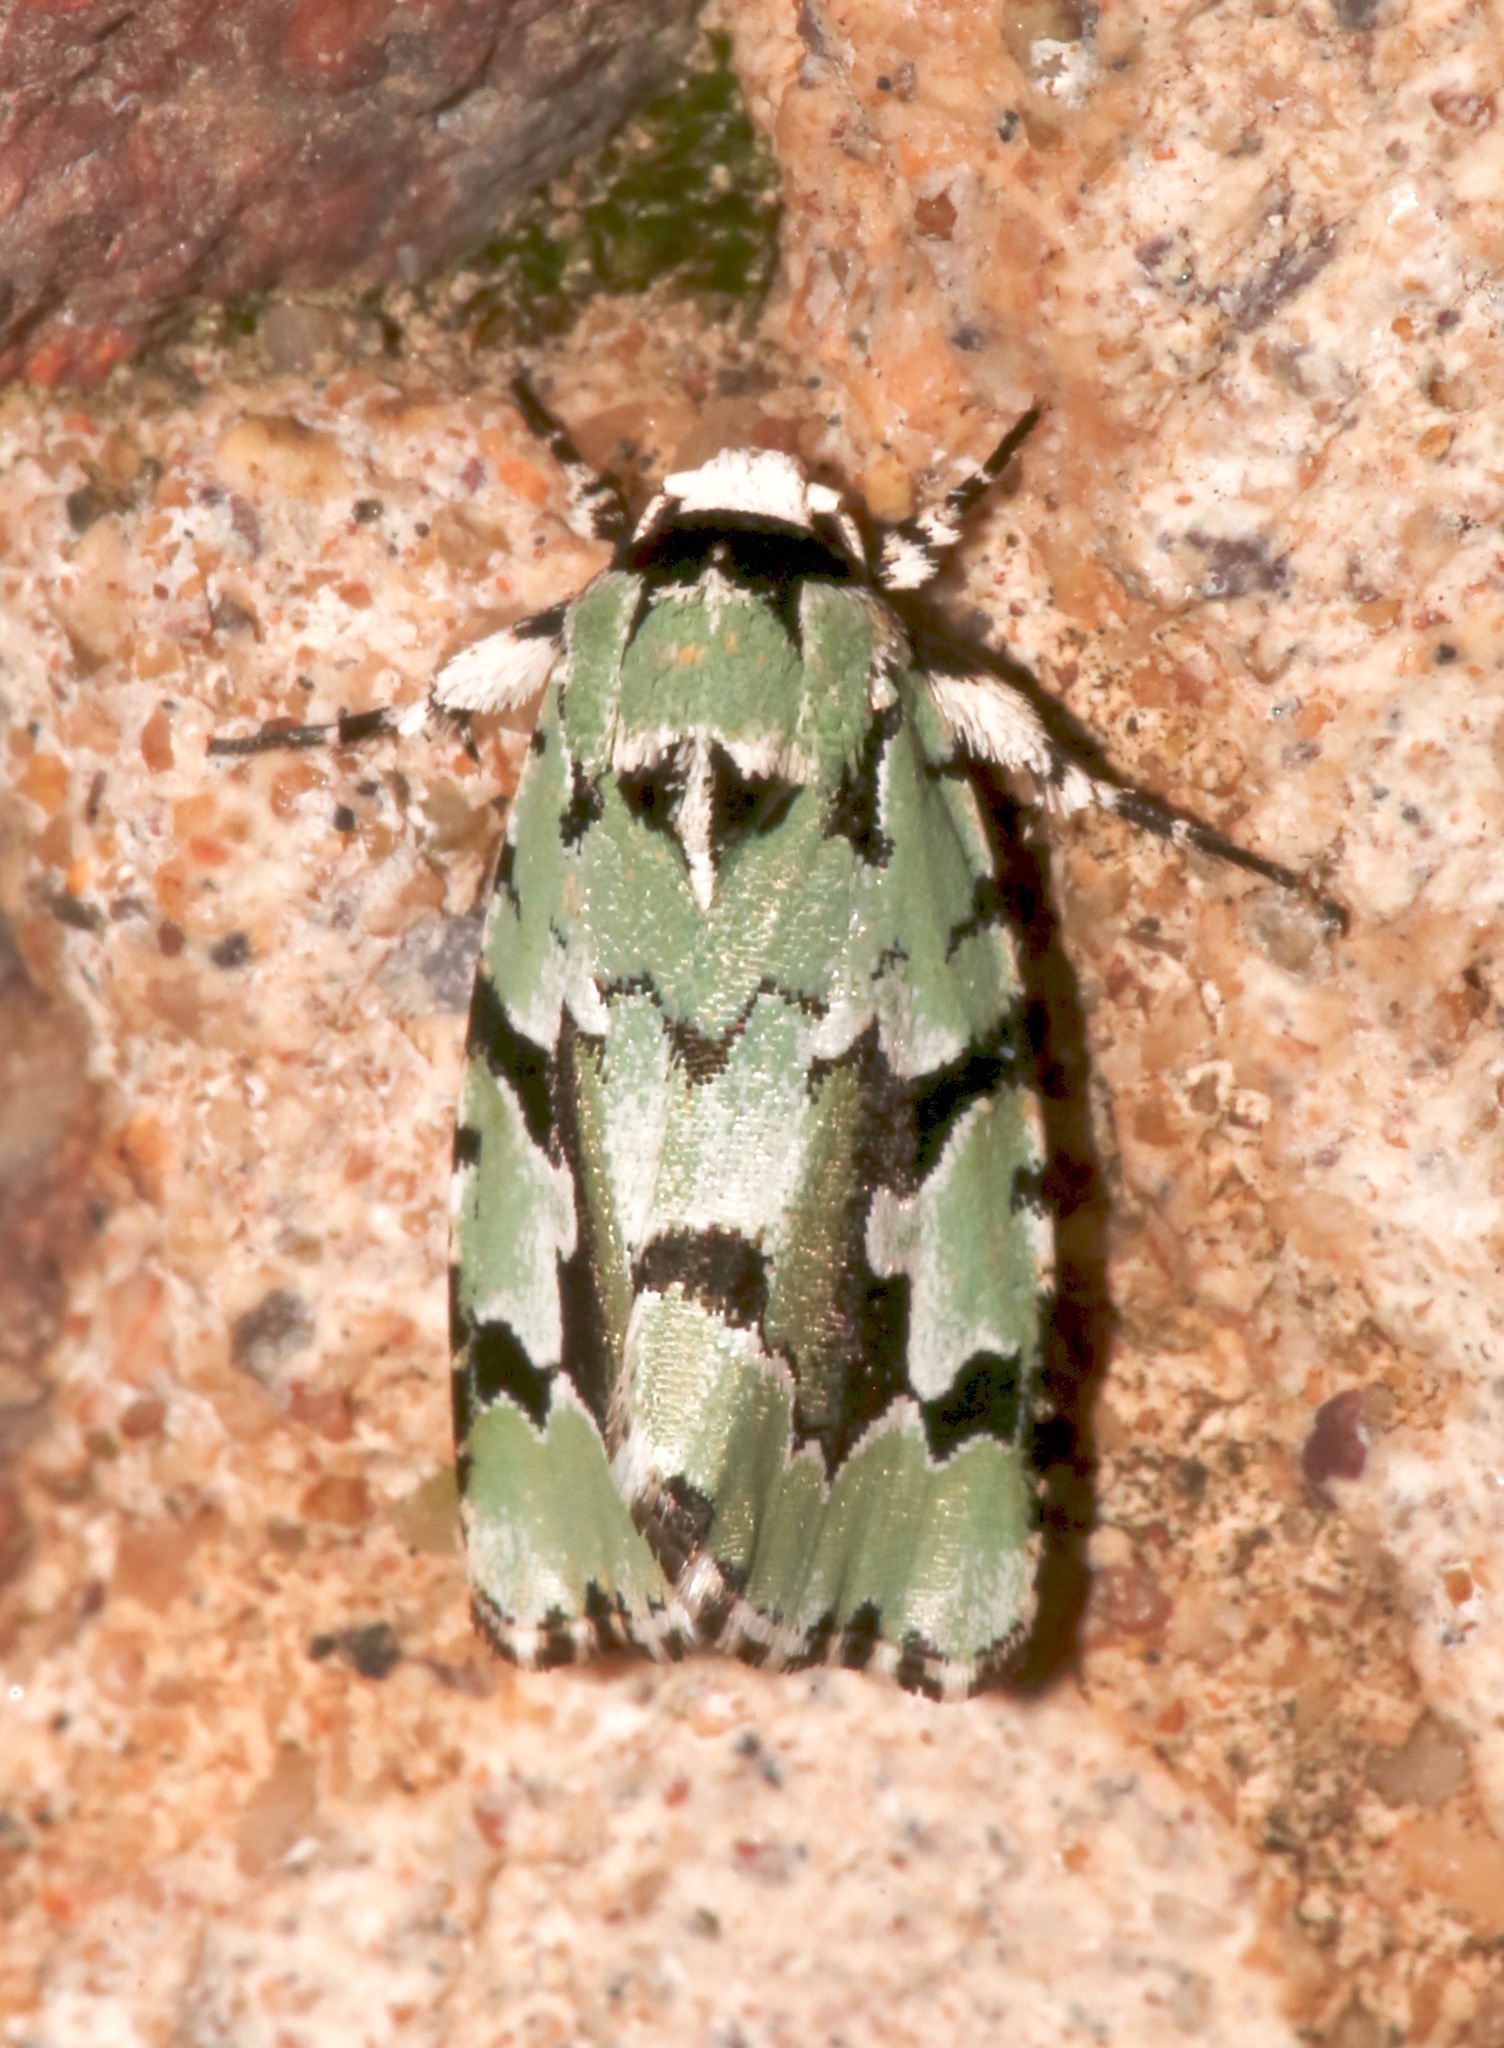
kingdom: Animalia
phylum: Arthropoda
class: Insecta
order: Lepidoptera
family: Noctuidae
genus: Emarginea
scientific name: Emarginea dulcinea
